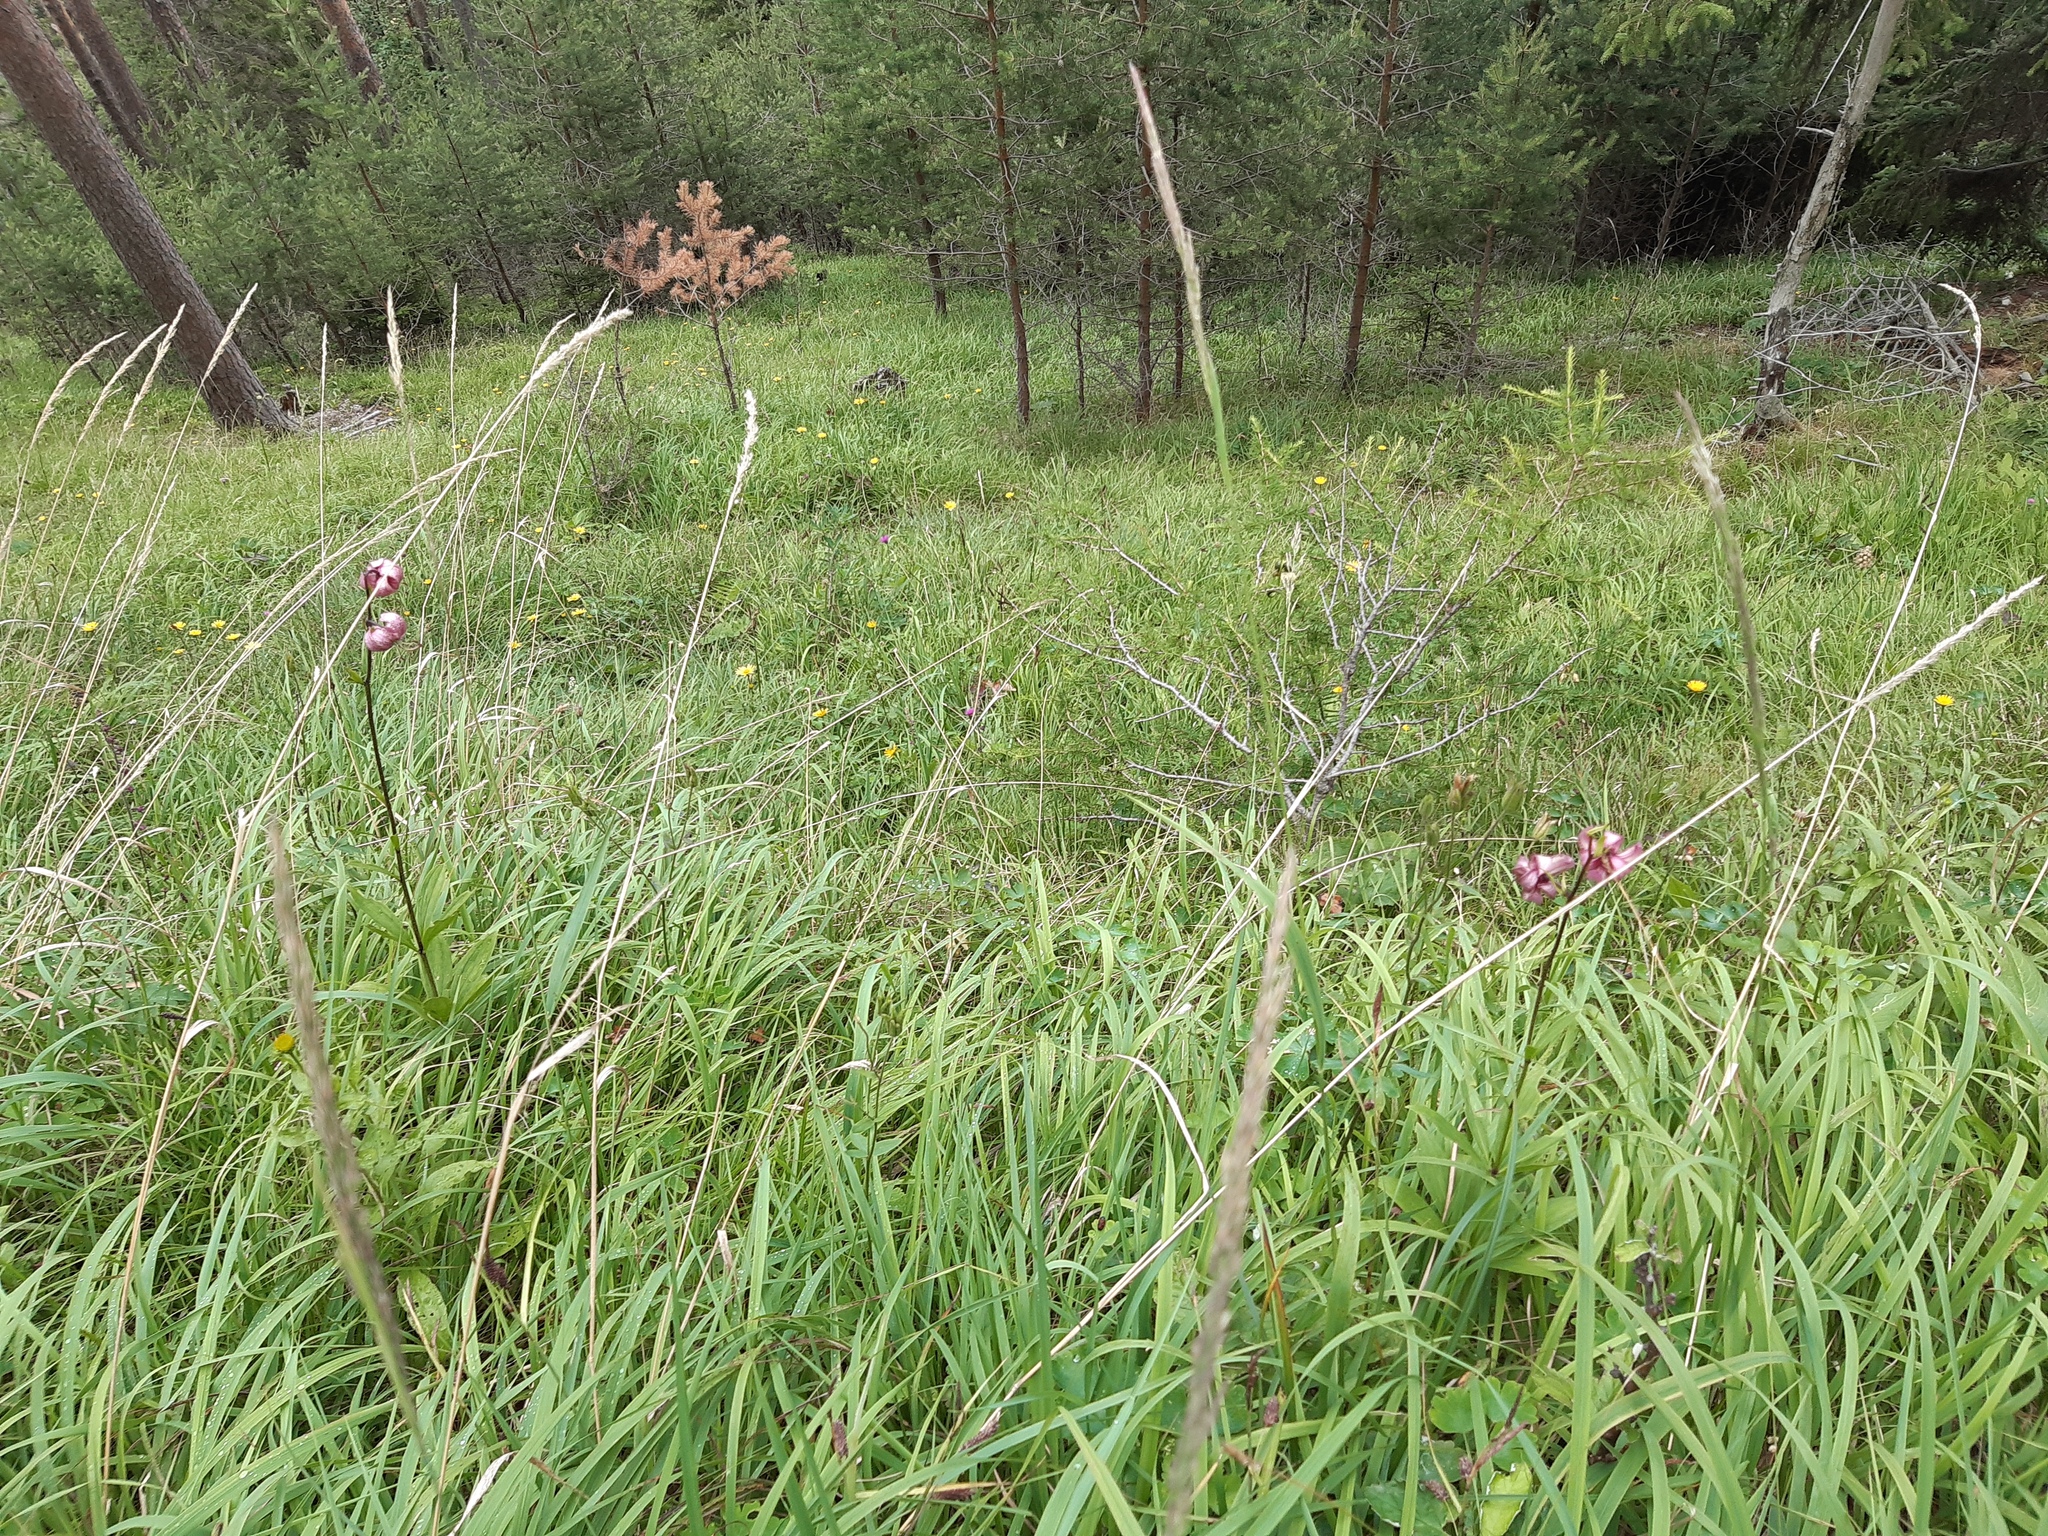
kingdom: Plantae
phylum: Tracheophyta
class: Liliopsida
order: Liliales
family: Liliaceae
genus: Lilium
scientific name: Lilium martagon
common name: Martagon lily
